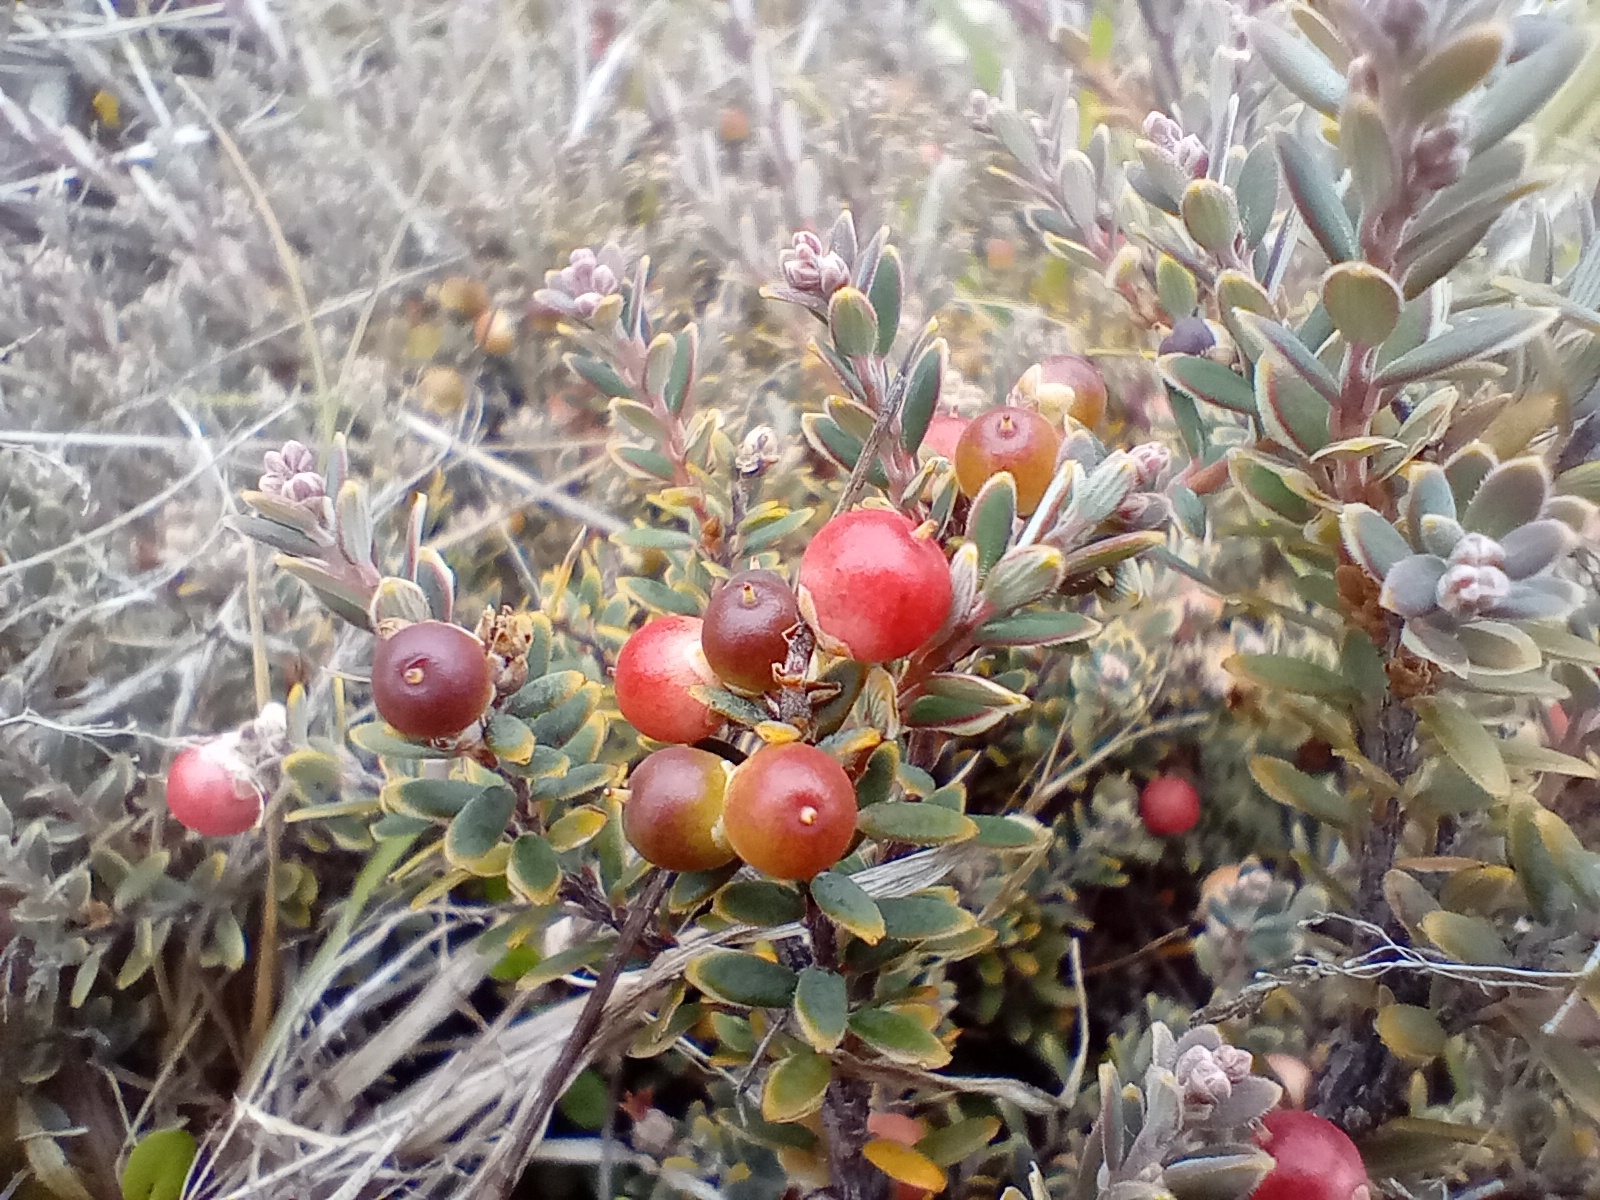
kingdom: Plantae
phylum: Tracheophyta
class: Magnoliopsida
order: Ericales
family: Ericaceae
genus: Acrothamnus
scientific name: Acrothamnus colensoi
